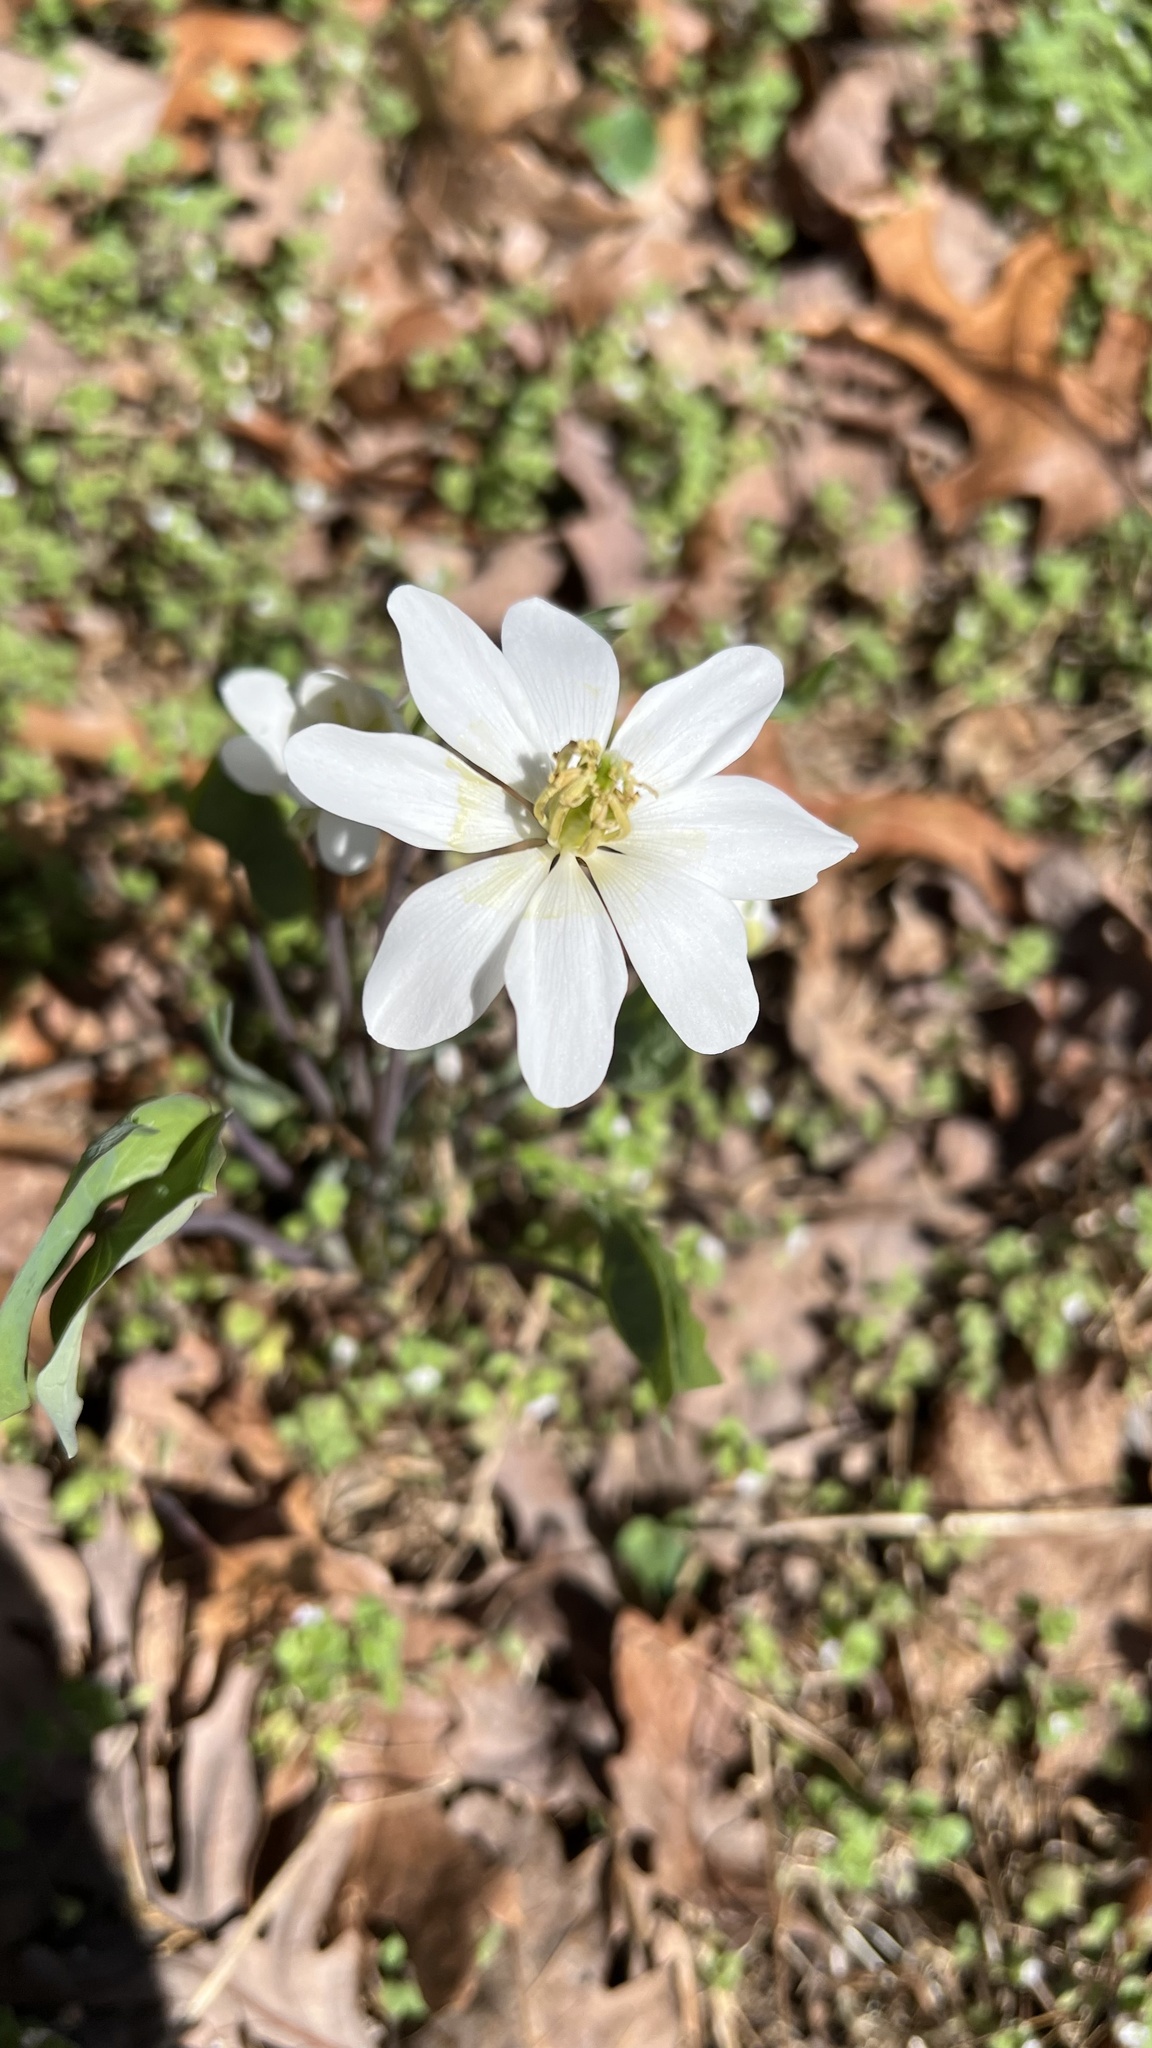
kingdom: Plantae
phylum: Tracheophyta
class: Magnoliopsida
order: Ranunculales
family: Berberidaceae
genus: Jeffersonia
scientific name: Jeffersonia diphylla
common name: Rheumatism-root
